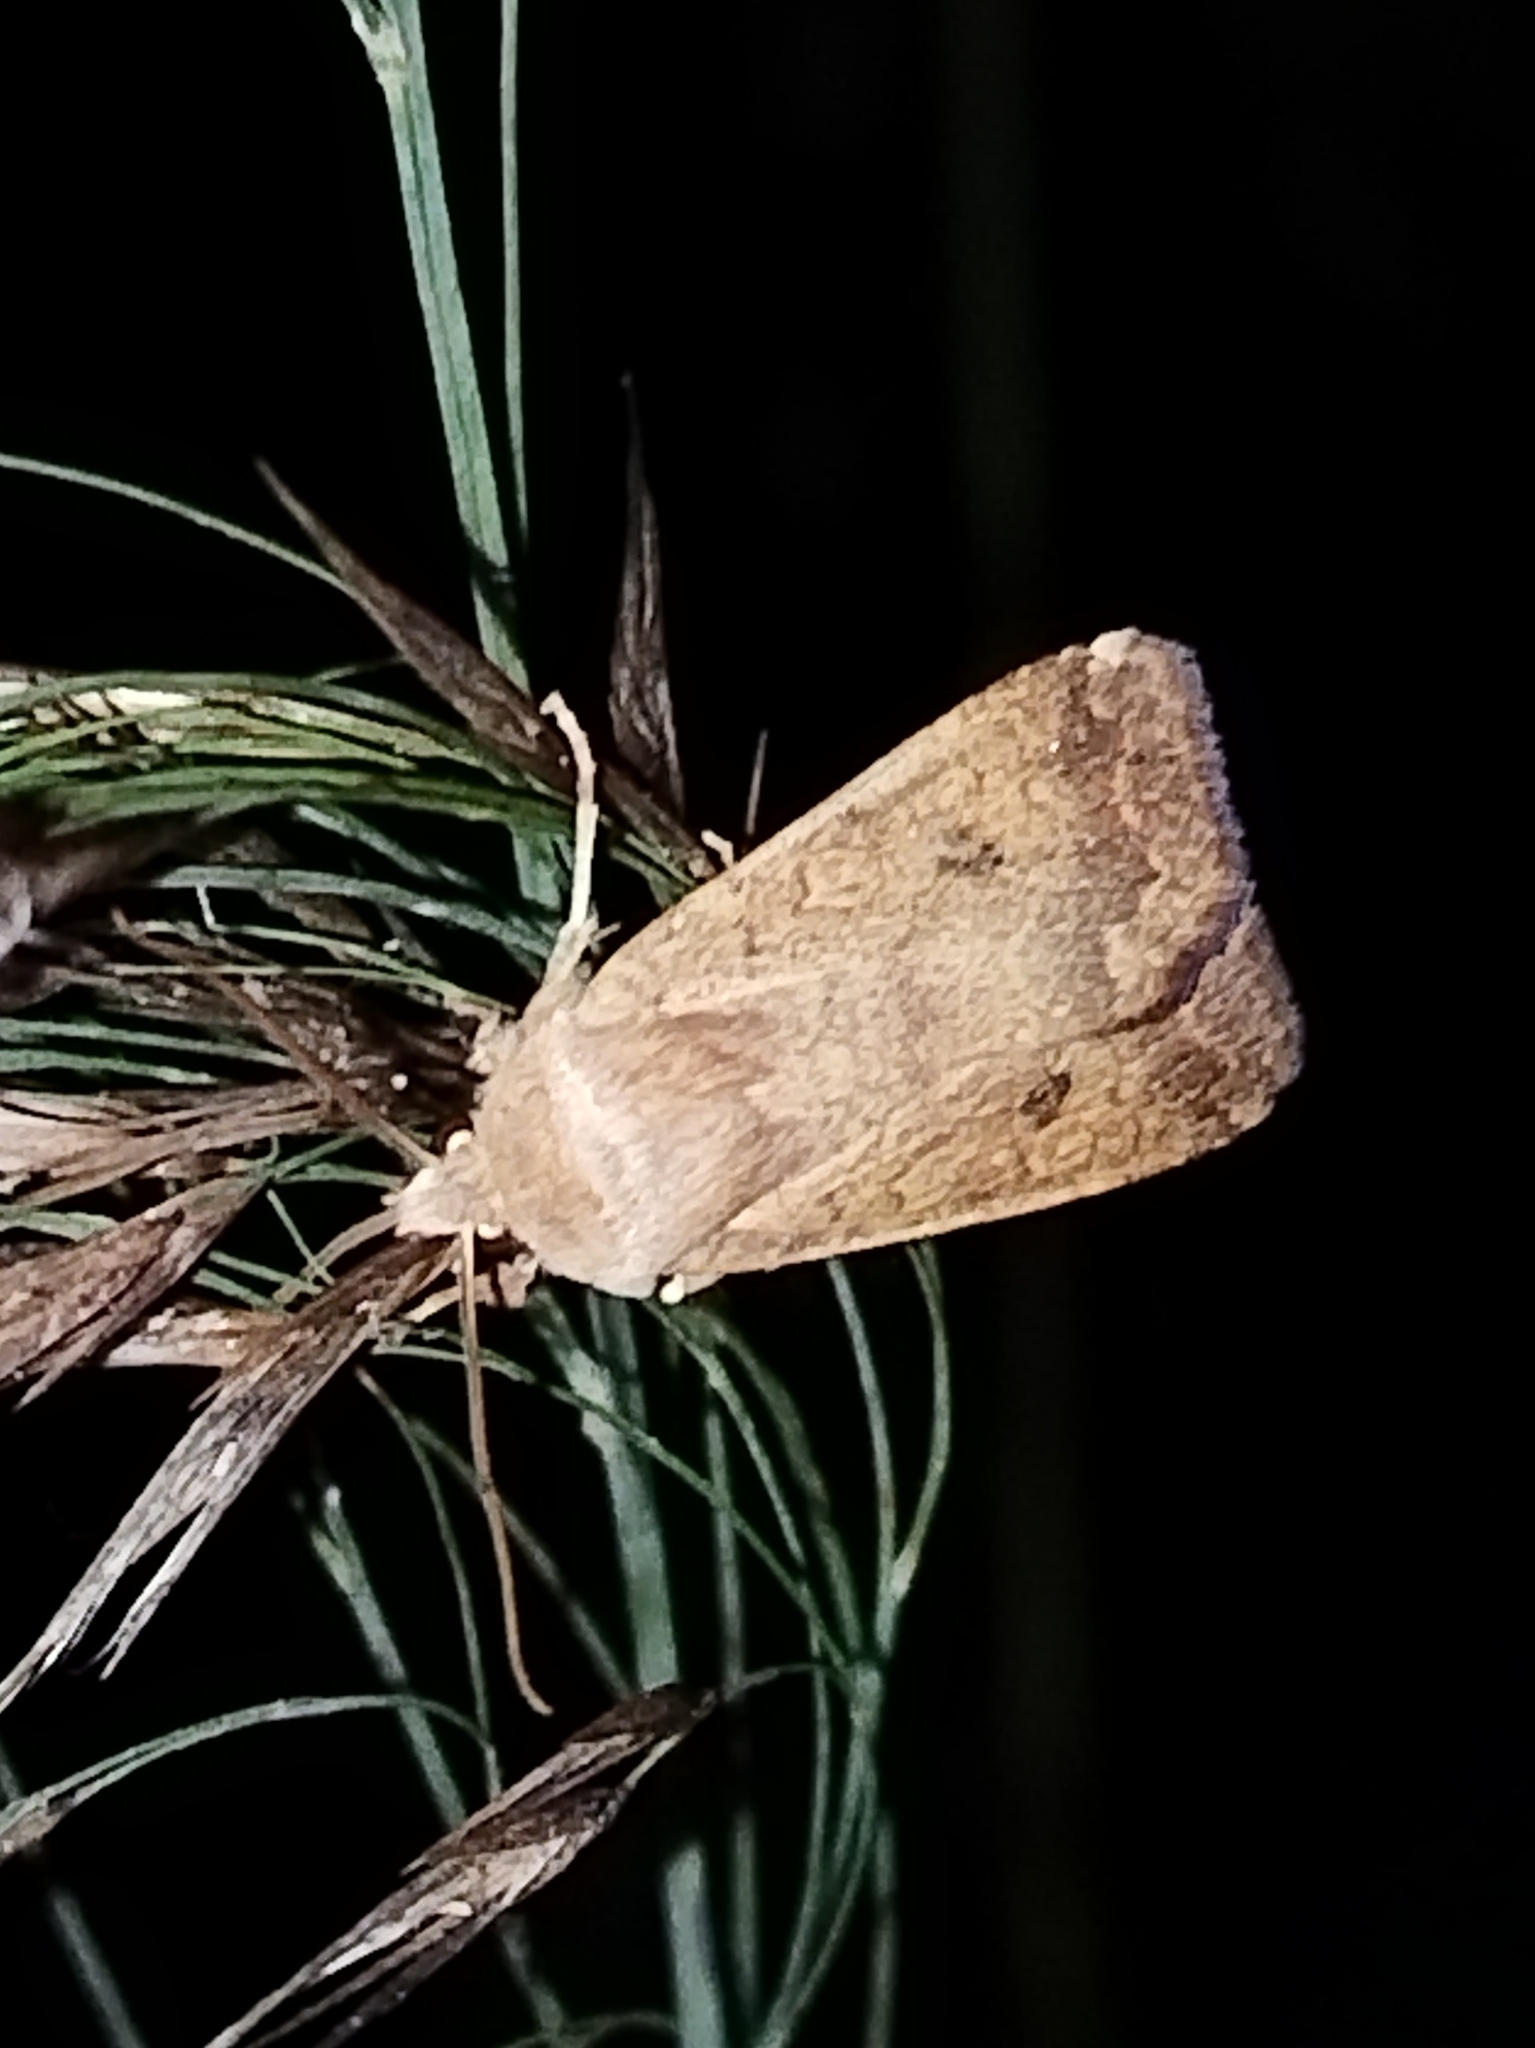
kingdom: Animalia
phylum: Arthropoda
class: Insecta
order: Lepidoptera
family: Noctuidae
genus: Sunira
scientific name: Sunira circellaris
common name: Brick
